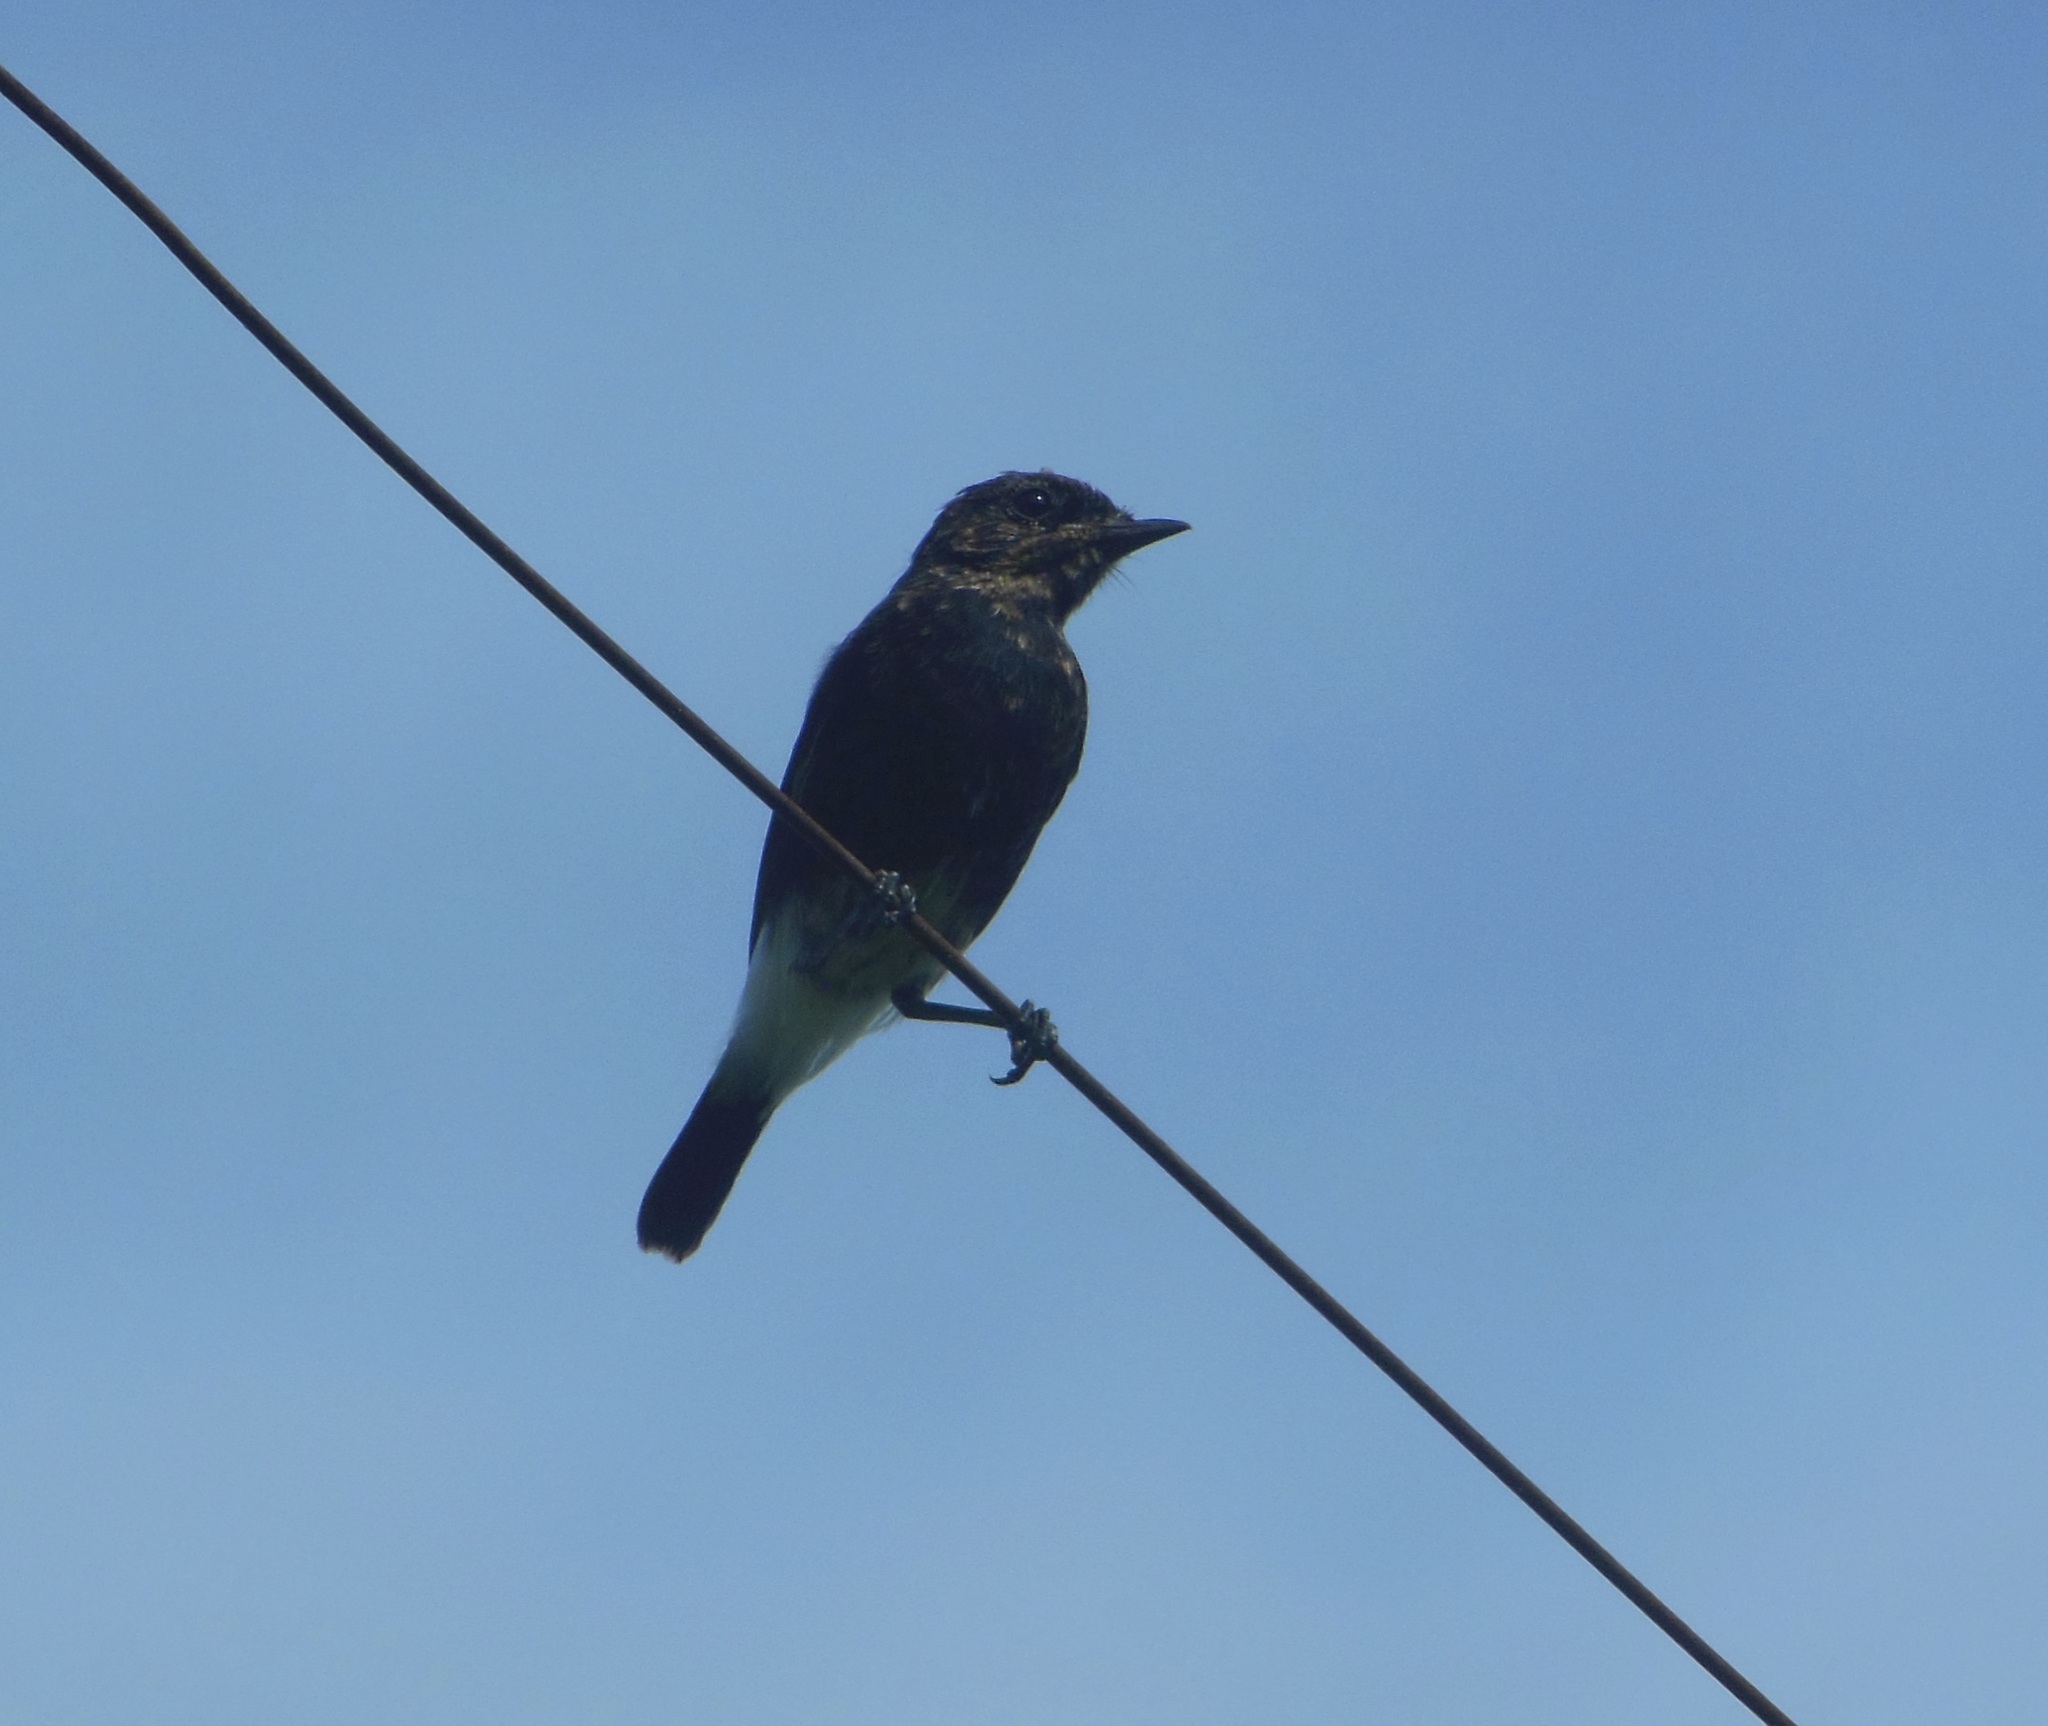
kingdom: Animalia
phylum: Chordata
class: Aves
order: Passeriformes
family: Muscicapidae
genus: Saxicola
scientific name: Saxicola caprata
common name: Pied bush chat
